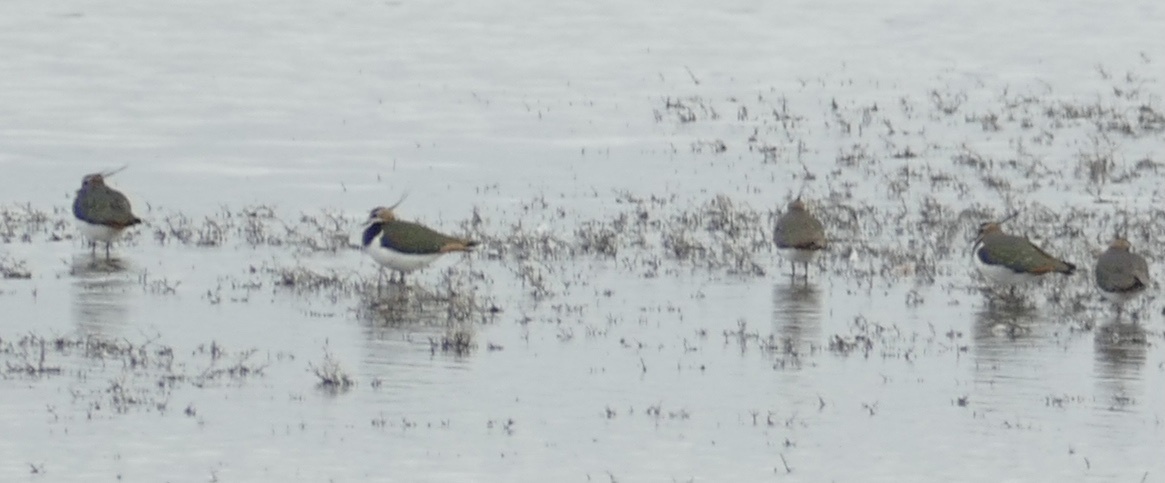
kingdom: Animalia
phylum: Chordata
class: Aves
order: Charadriiformes
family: Charadriidae
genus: Vanellus
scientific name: Vanellus vanellus
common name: Northern lapwing
